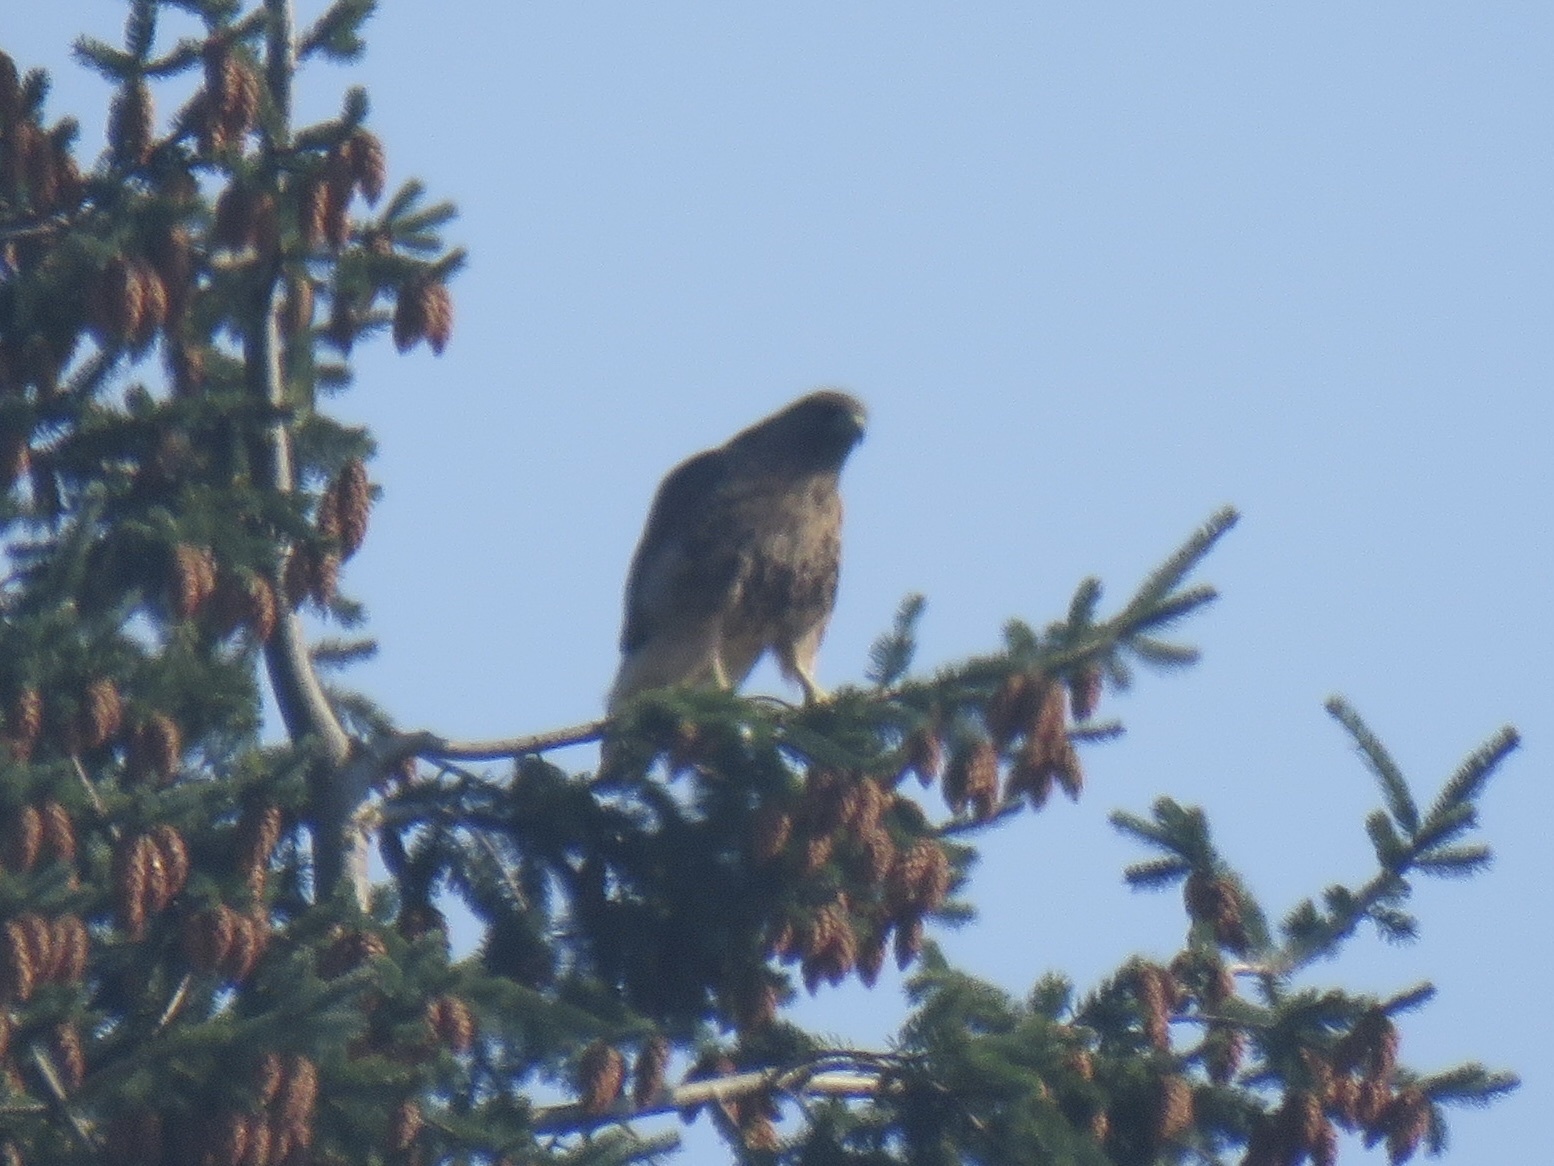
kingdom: Animalia
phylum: Chordata
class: Aves
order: Accipitriformes
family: Accipitridae
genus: Buteo
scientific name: Buteo jamaicensis
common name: Red-tailed hawk
